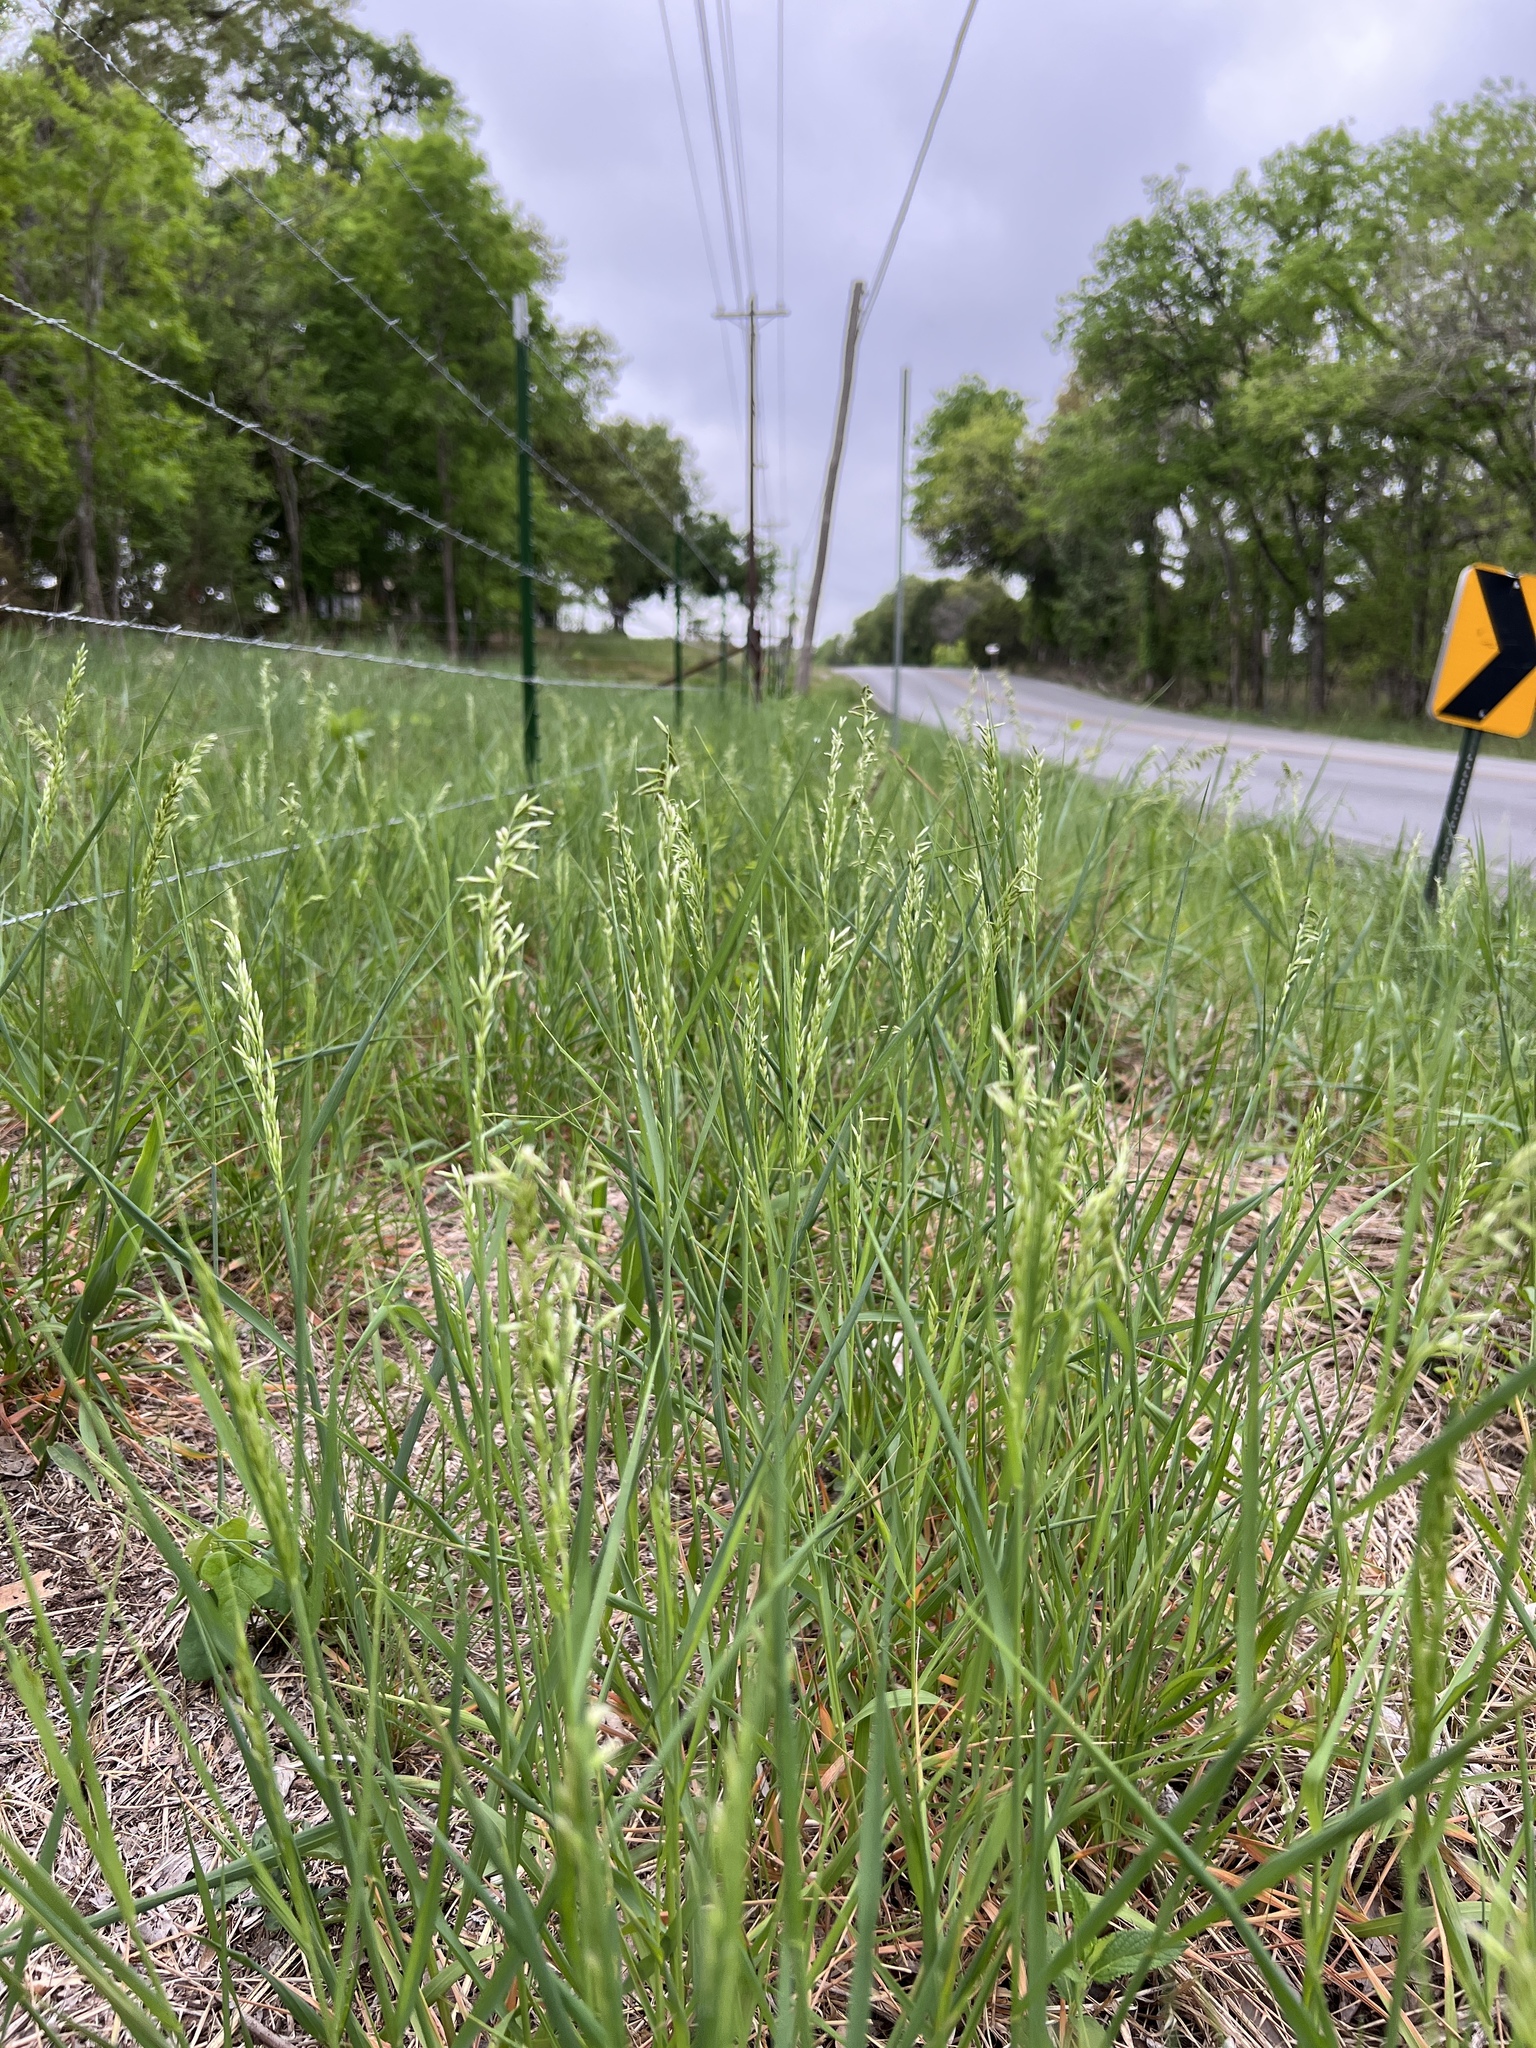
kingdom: Plantae
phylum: Tracheophyta
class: Liliopsida
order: Poales
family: Poaceae
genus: Melica
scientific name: Melica nitens
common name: Three-flower melic
